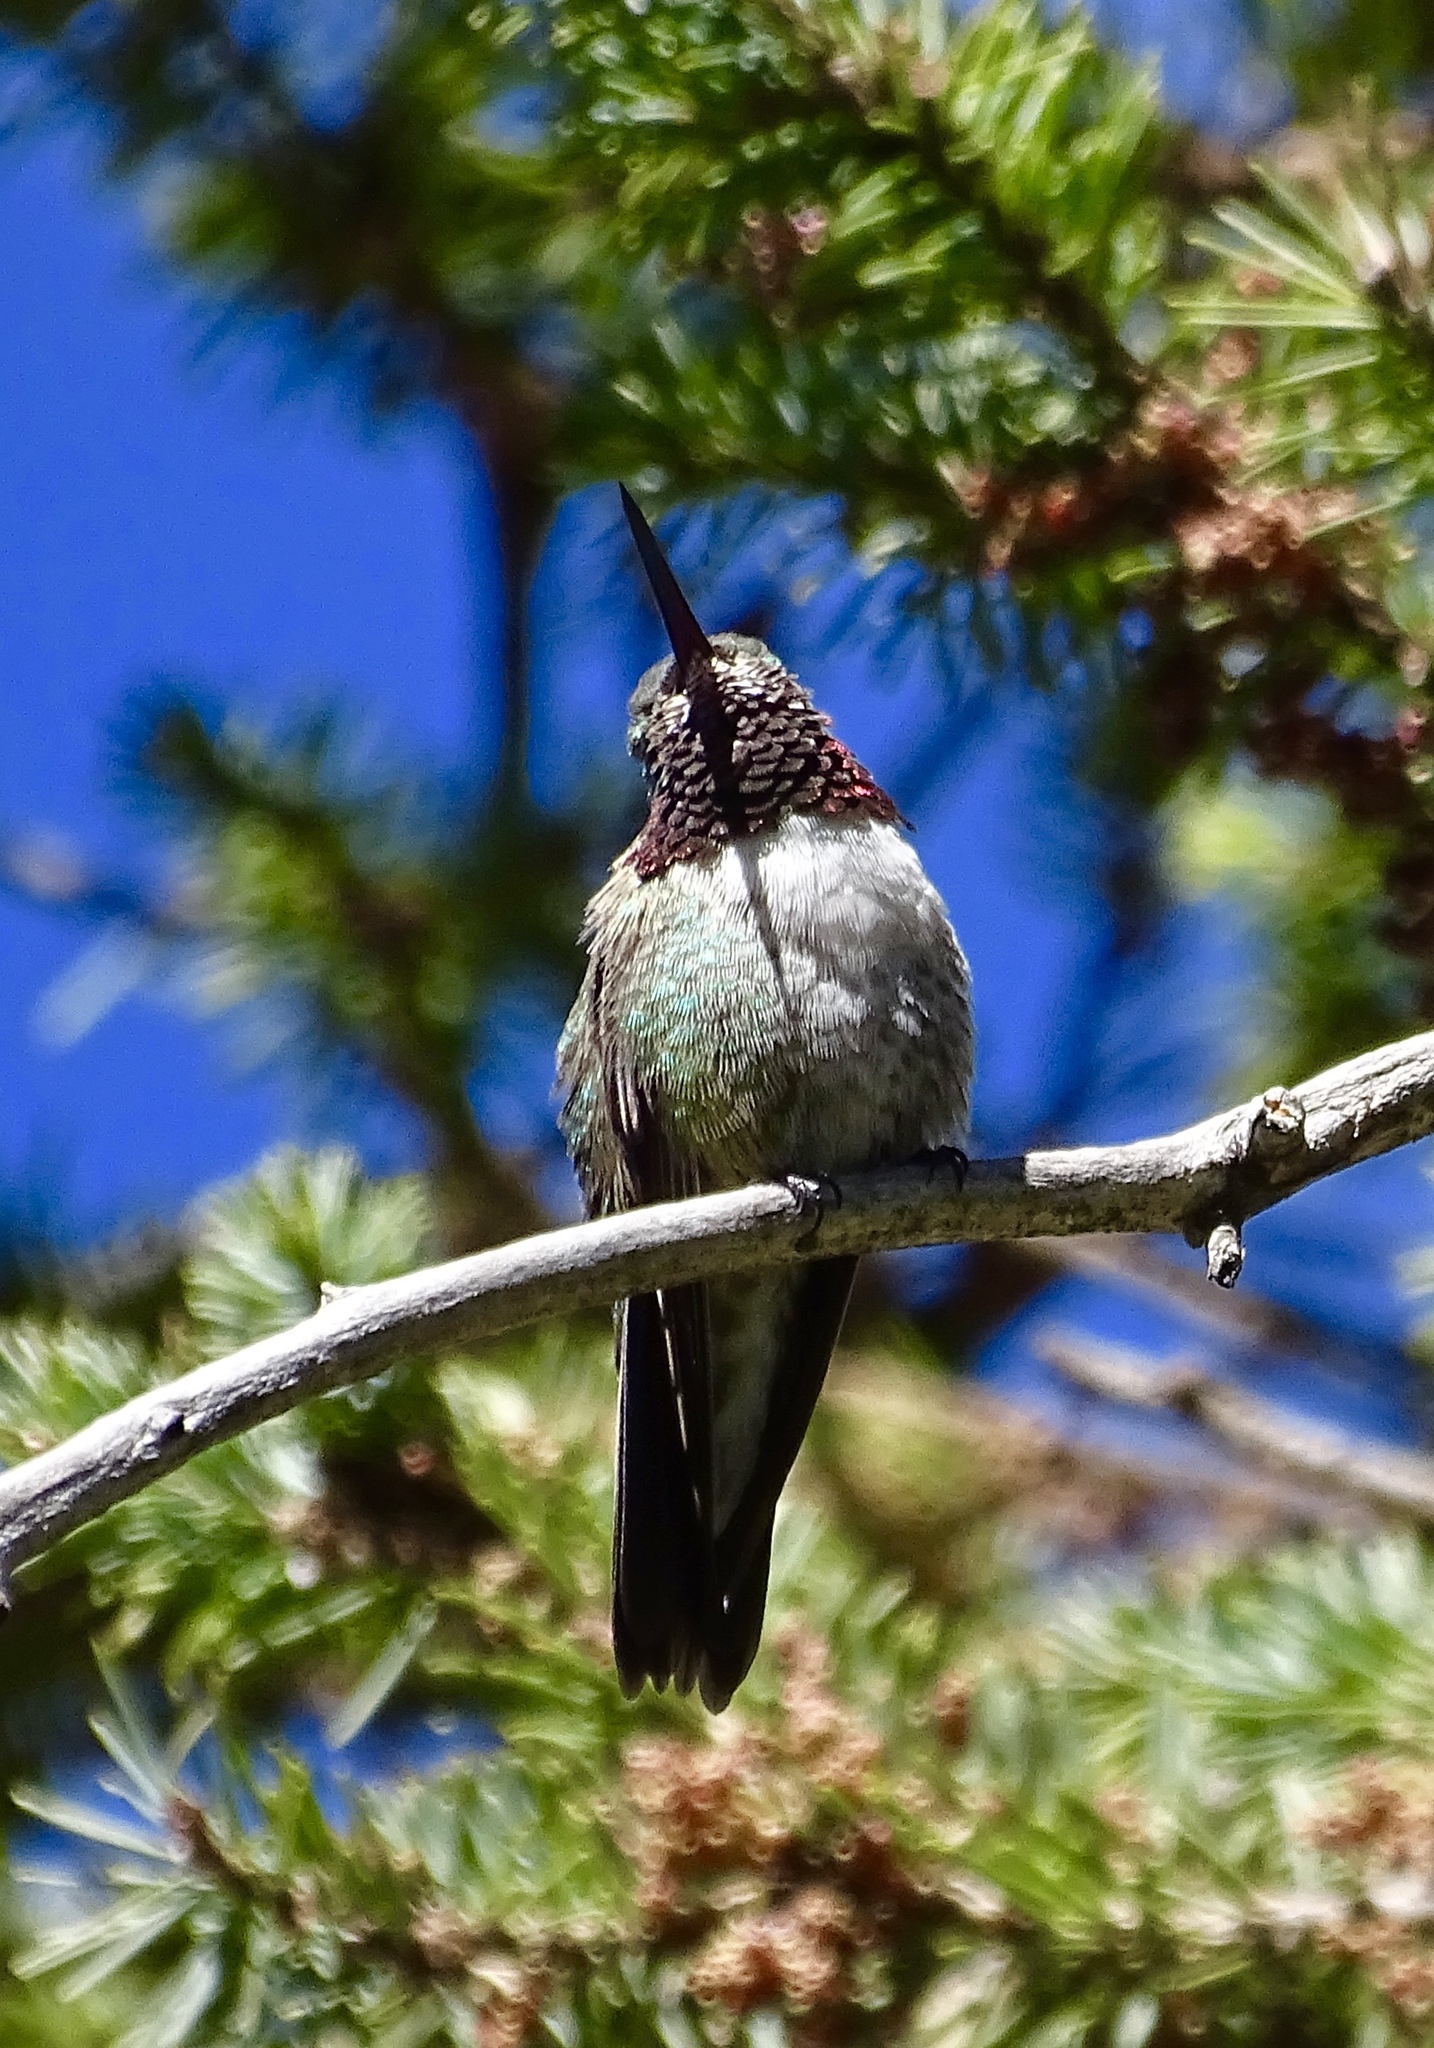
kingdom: Animalia
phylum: Chordata
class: Aves
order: Apodiformes
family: Trochilidae
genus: Selasphorus
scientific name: Selasphorus platycercus
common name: Broad-tailed hummingbird
